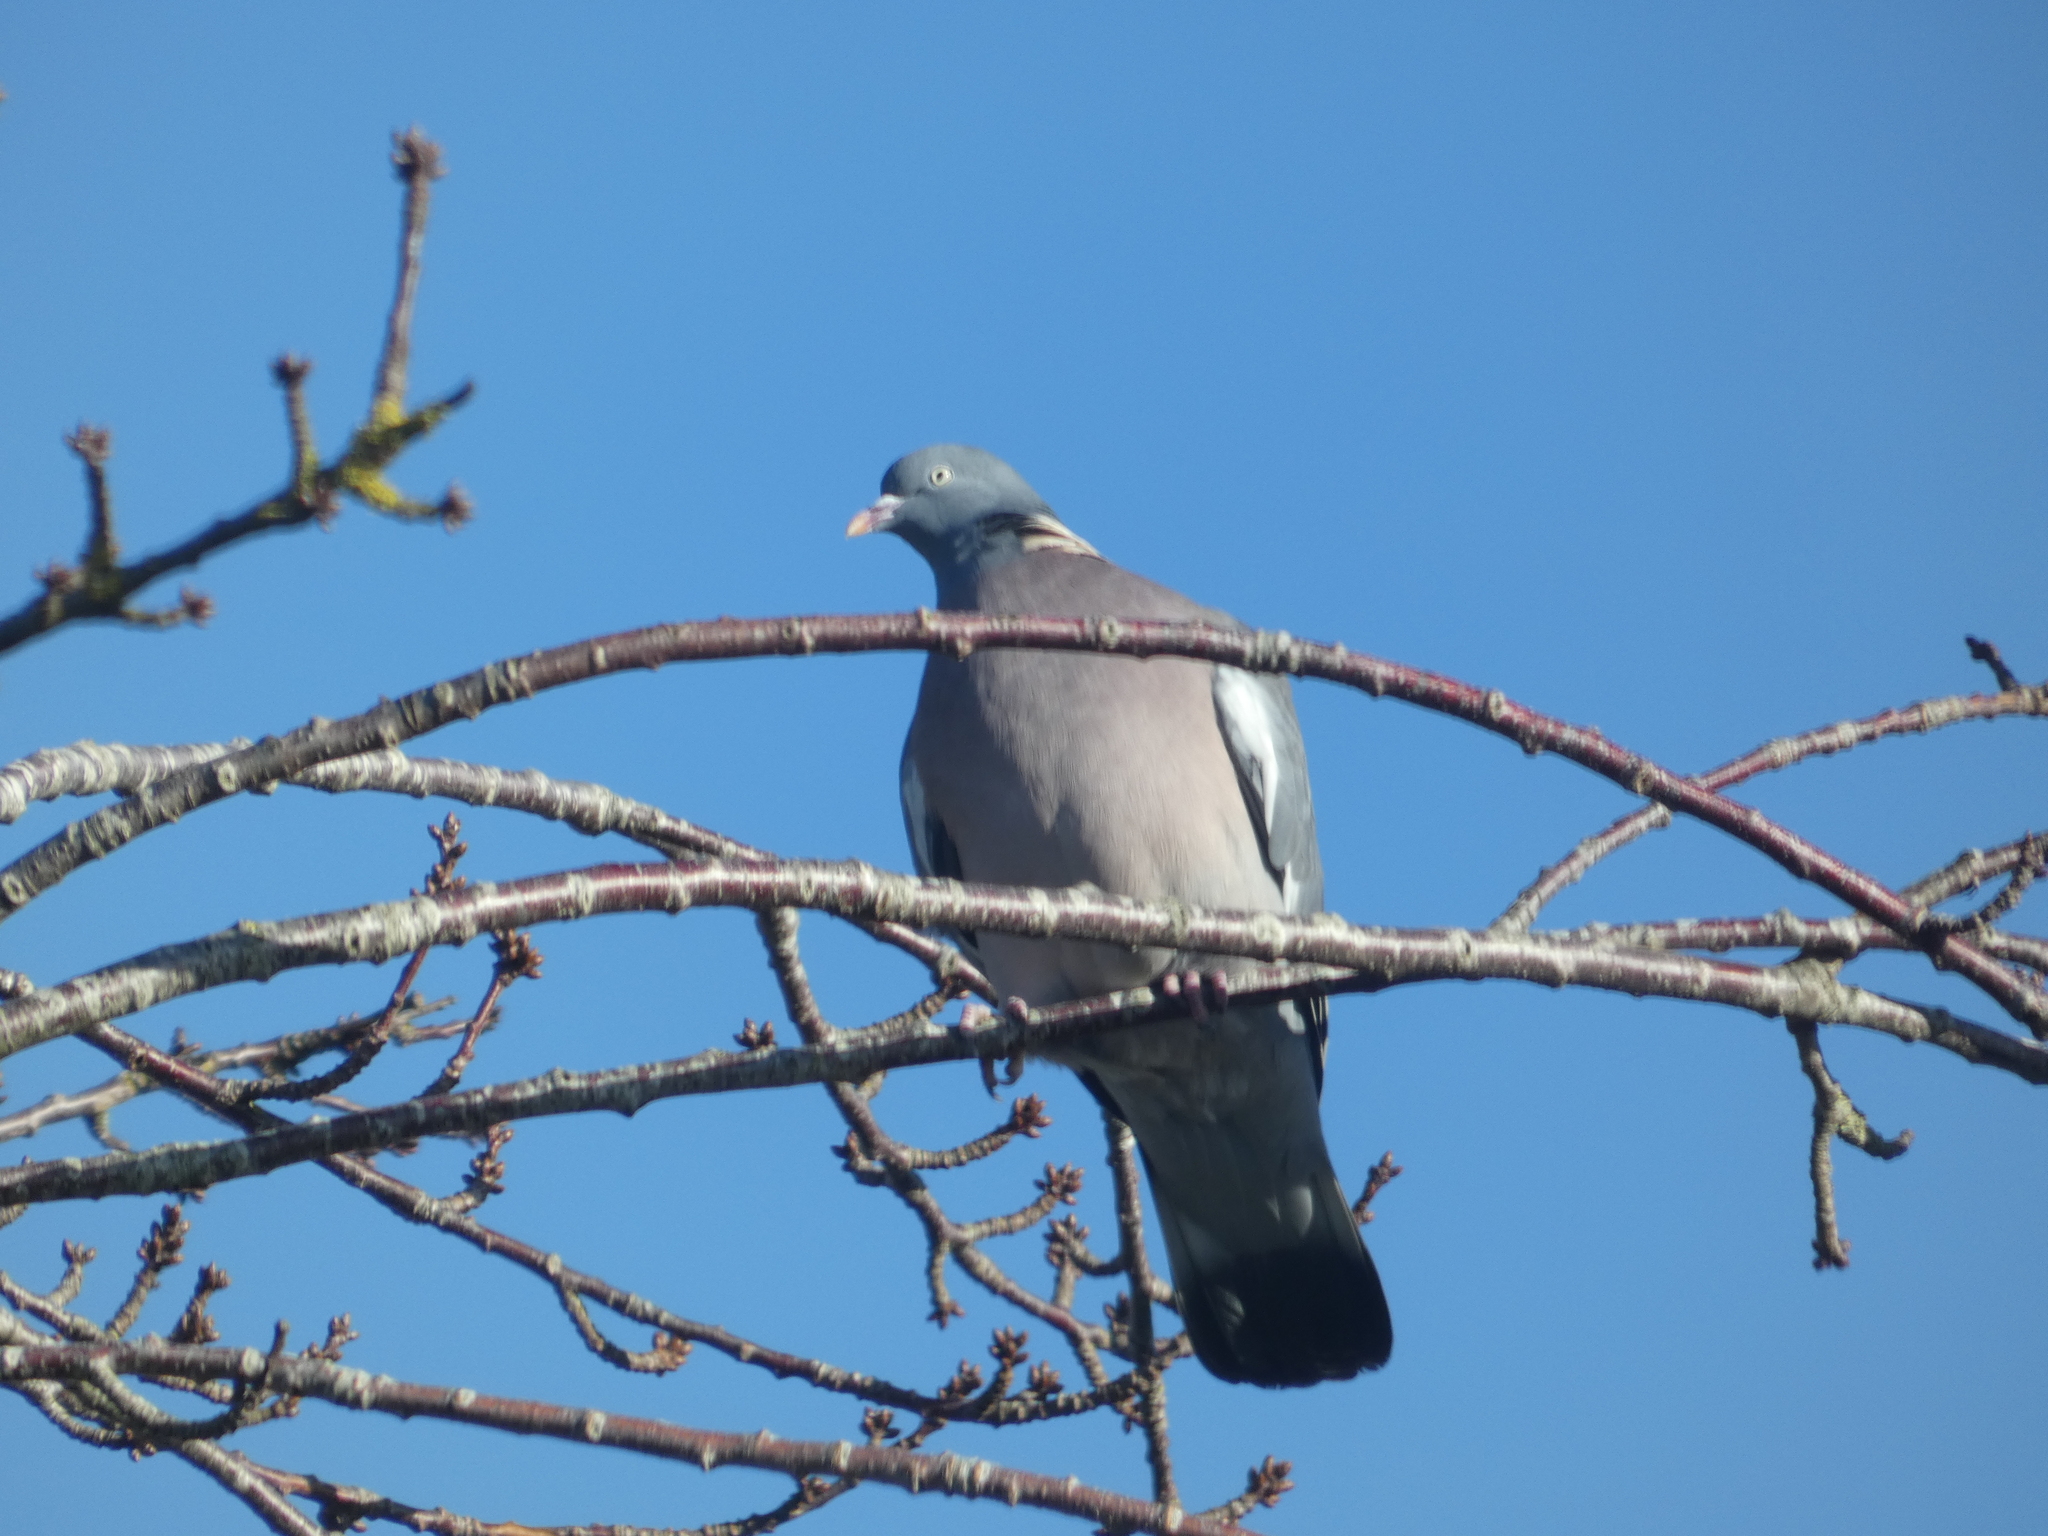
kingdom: Animalia
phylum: Chordata
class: Aves
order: Columbiformes
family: Columbidae
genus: Columba
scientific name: Columba palumbus
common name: Common wood pigeon
